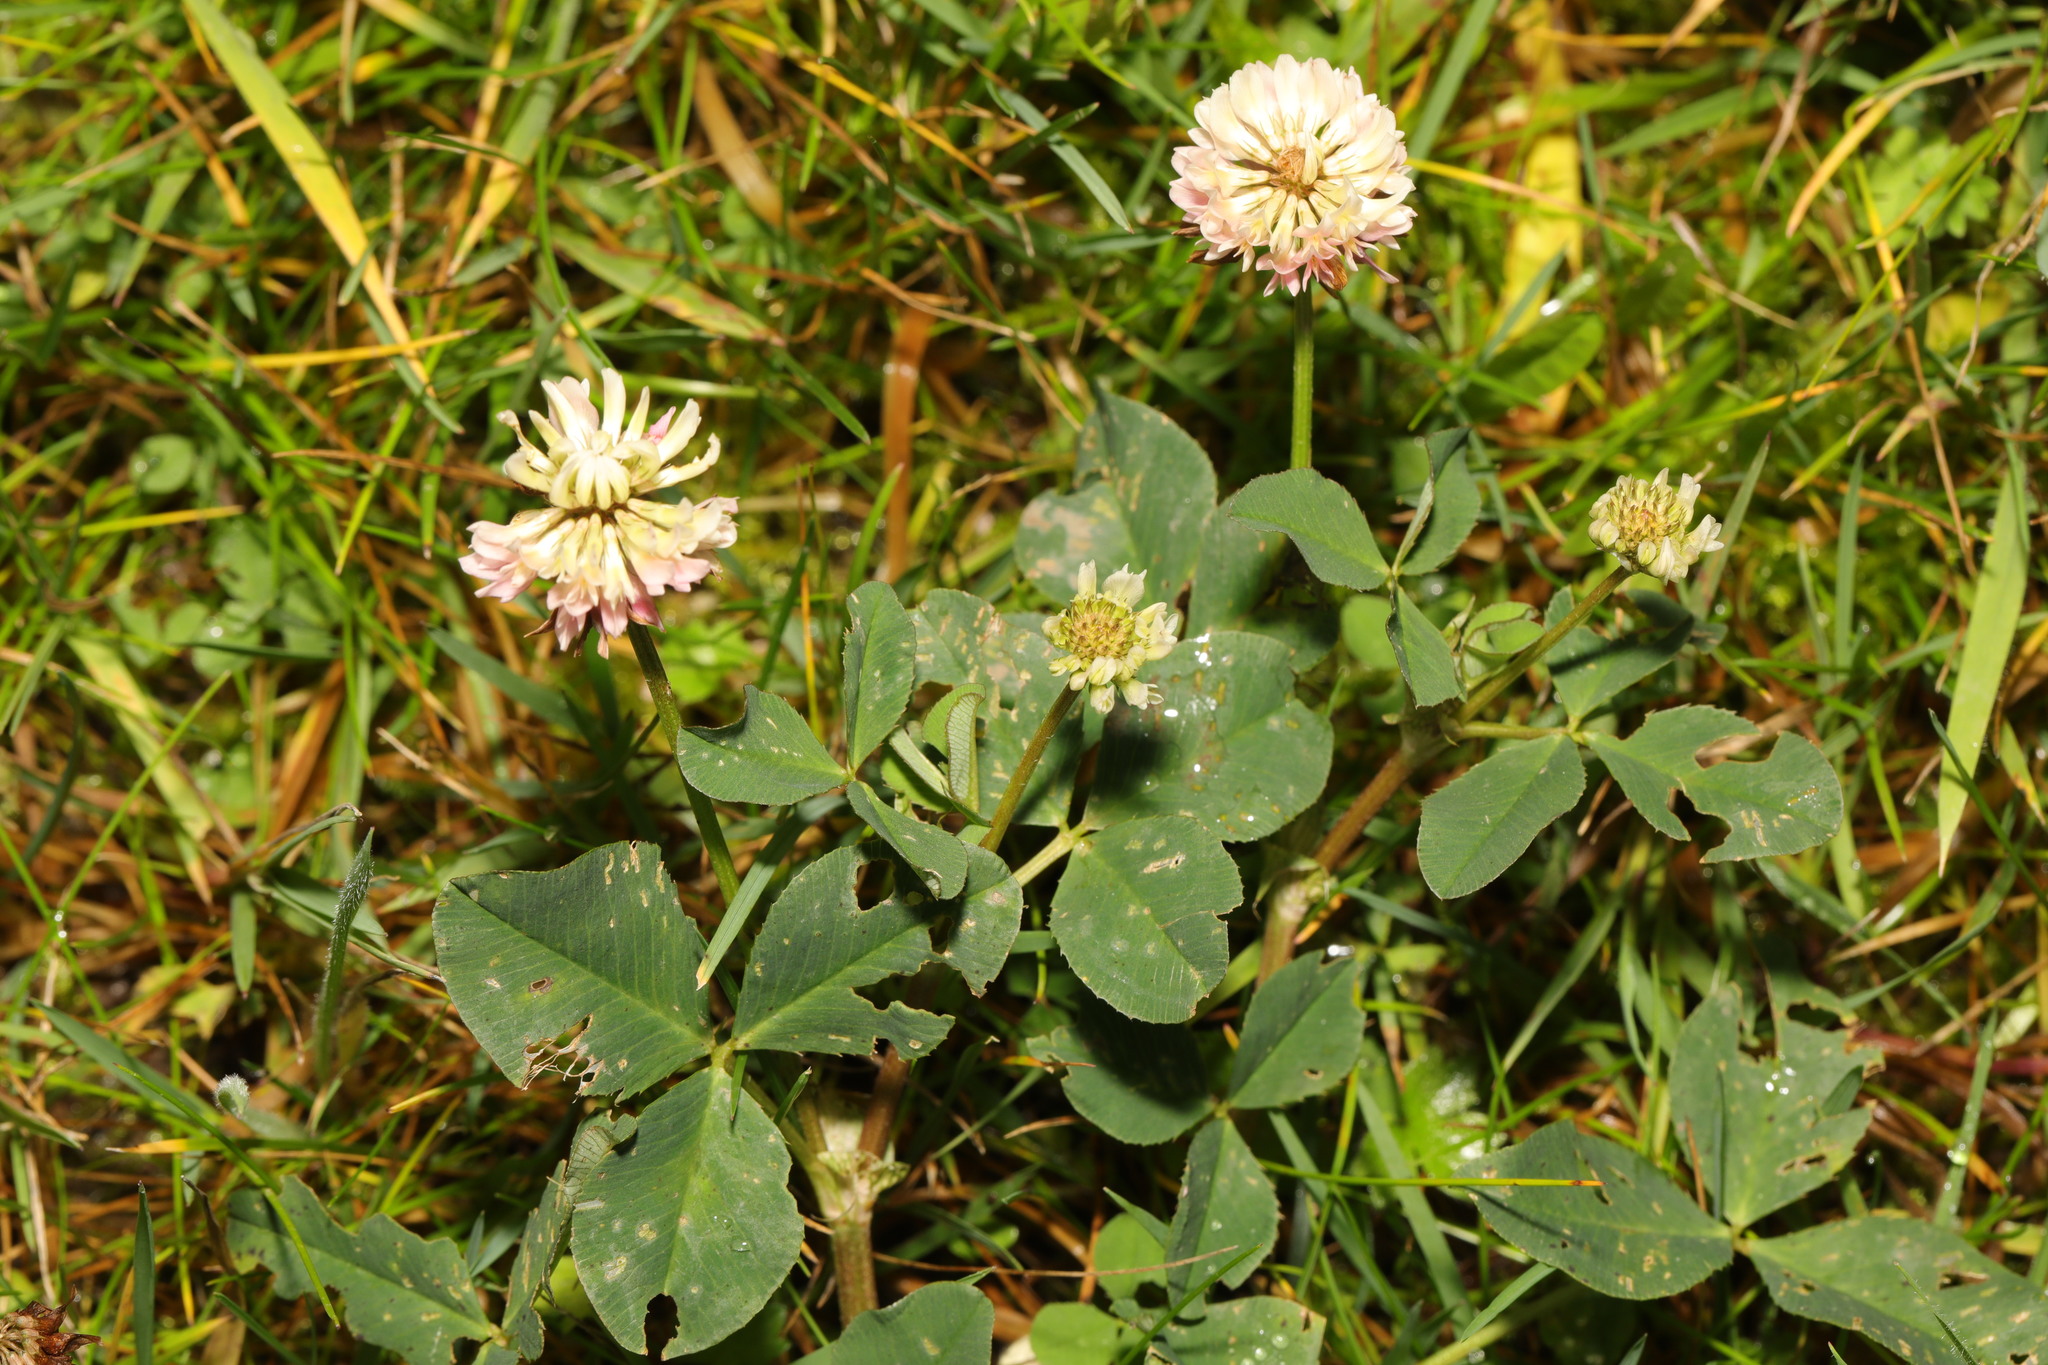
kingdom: Plantae
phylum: Tracheophyta
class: Magnoliopsida
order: Fabales
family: Fabaceae
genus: Trifolium
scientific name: Trifolium hybridum
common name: Alsike clover
